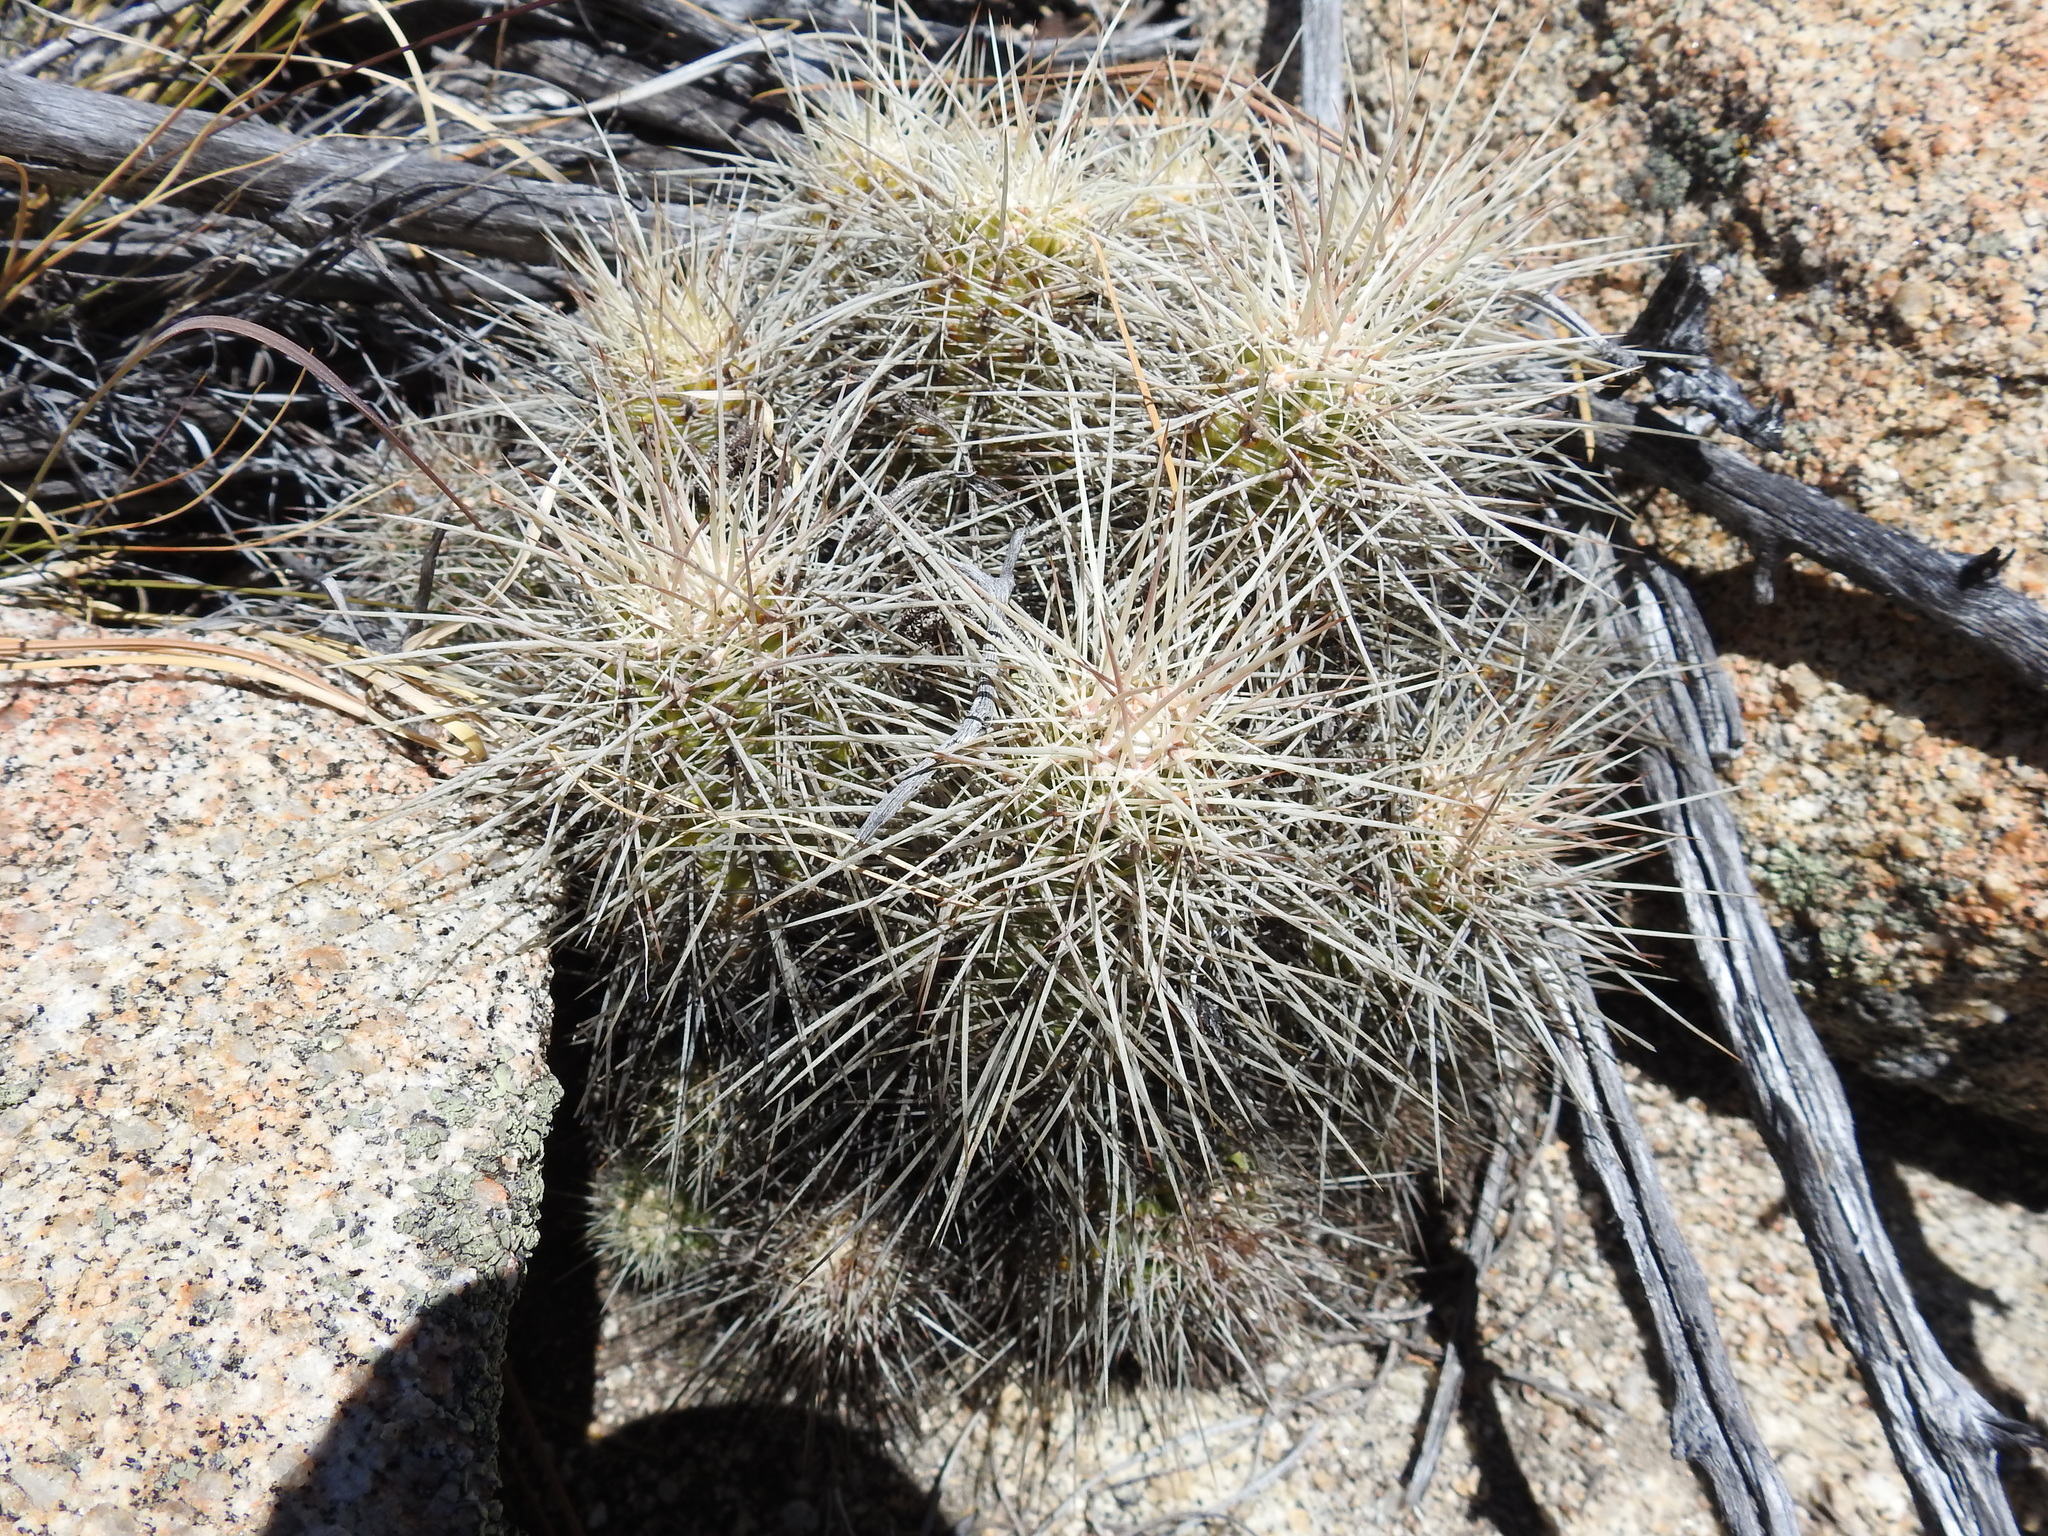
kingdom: Plantae
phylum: Tracheophyta
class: Magnoliopsida
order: Caryophyllales
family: Cactaceae
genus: Echinocereus
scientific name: Echinocereus pacificus
